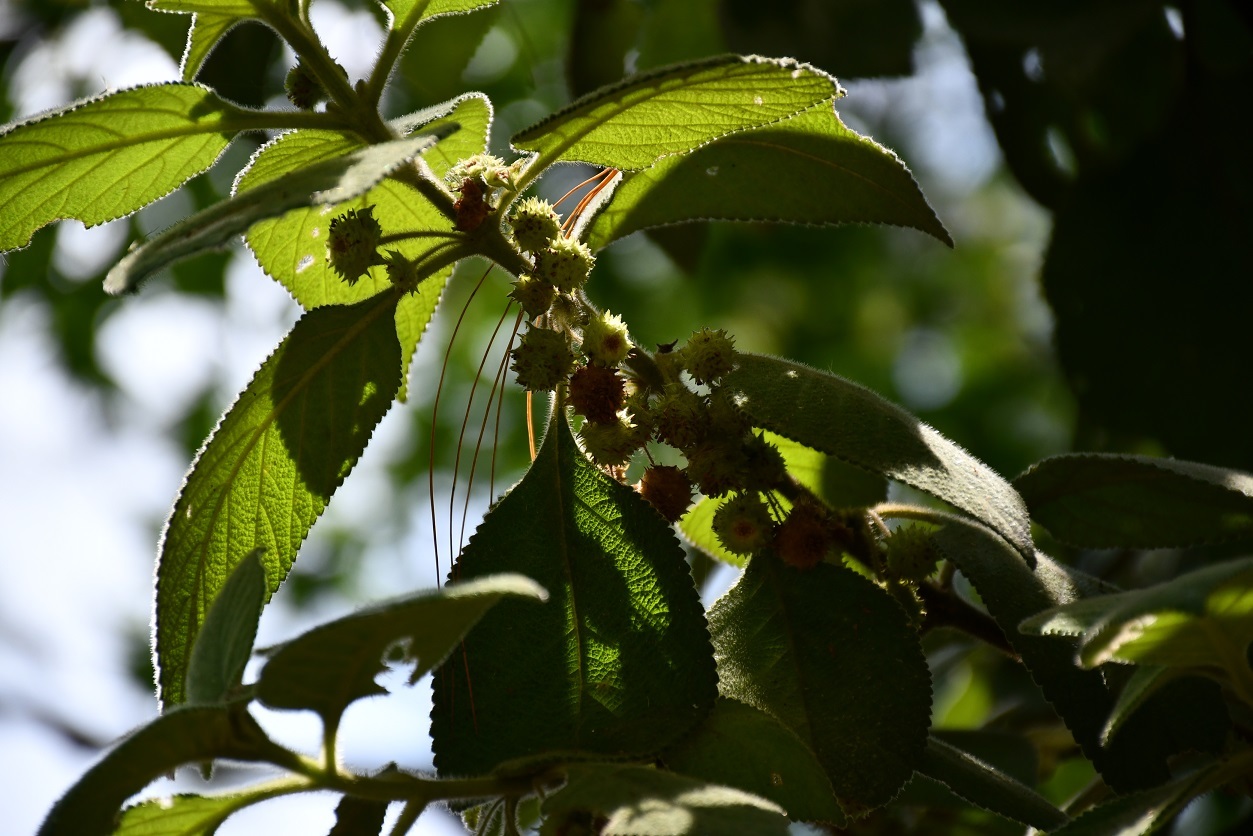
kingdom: Plantae
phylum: Tracheophyta
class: Magnoliopsida
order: Lamiales
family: Verbenaceae
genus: Lippia
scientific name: Lippia chiapasensis
